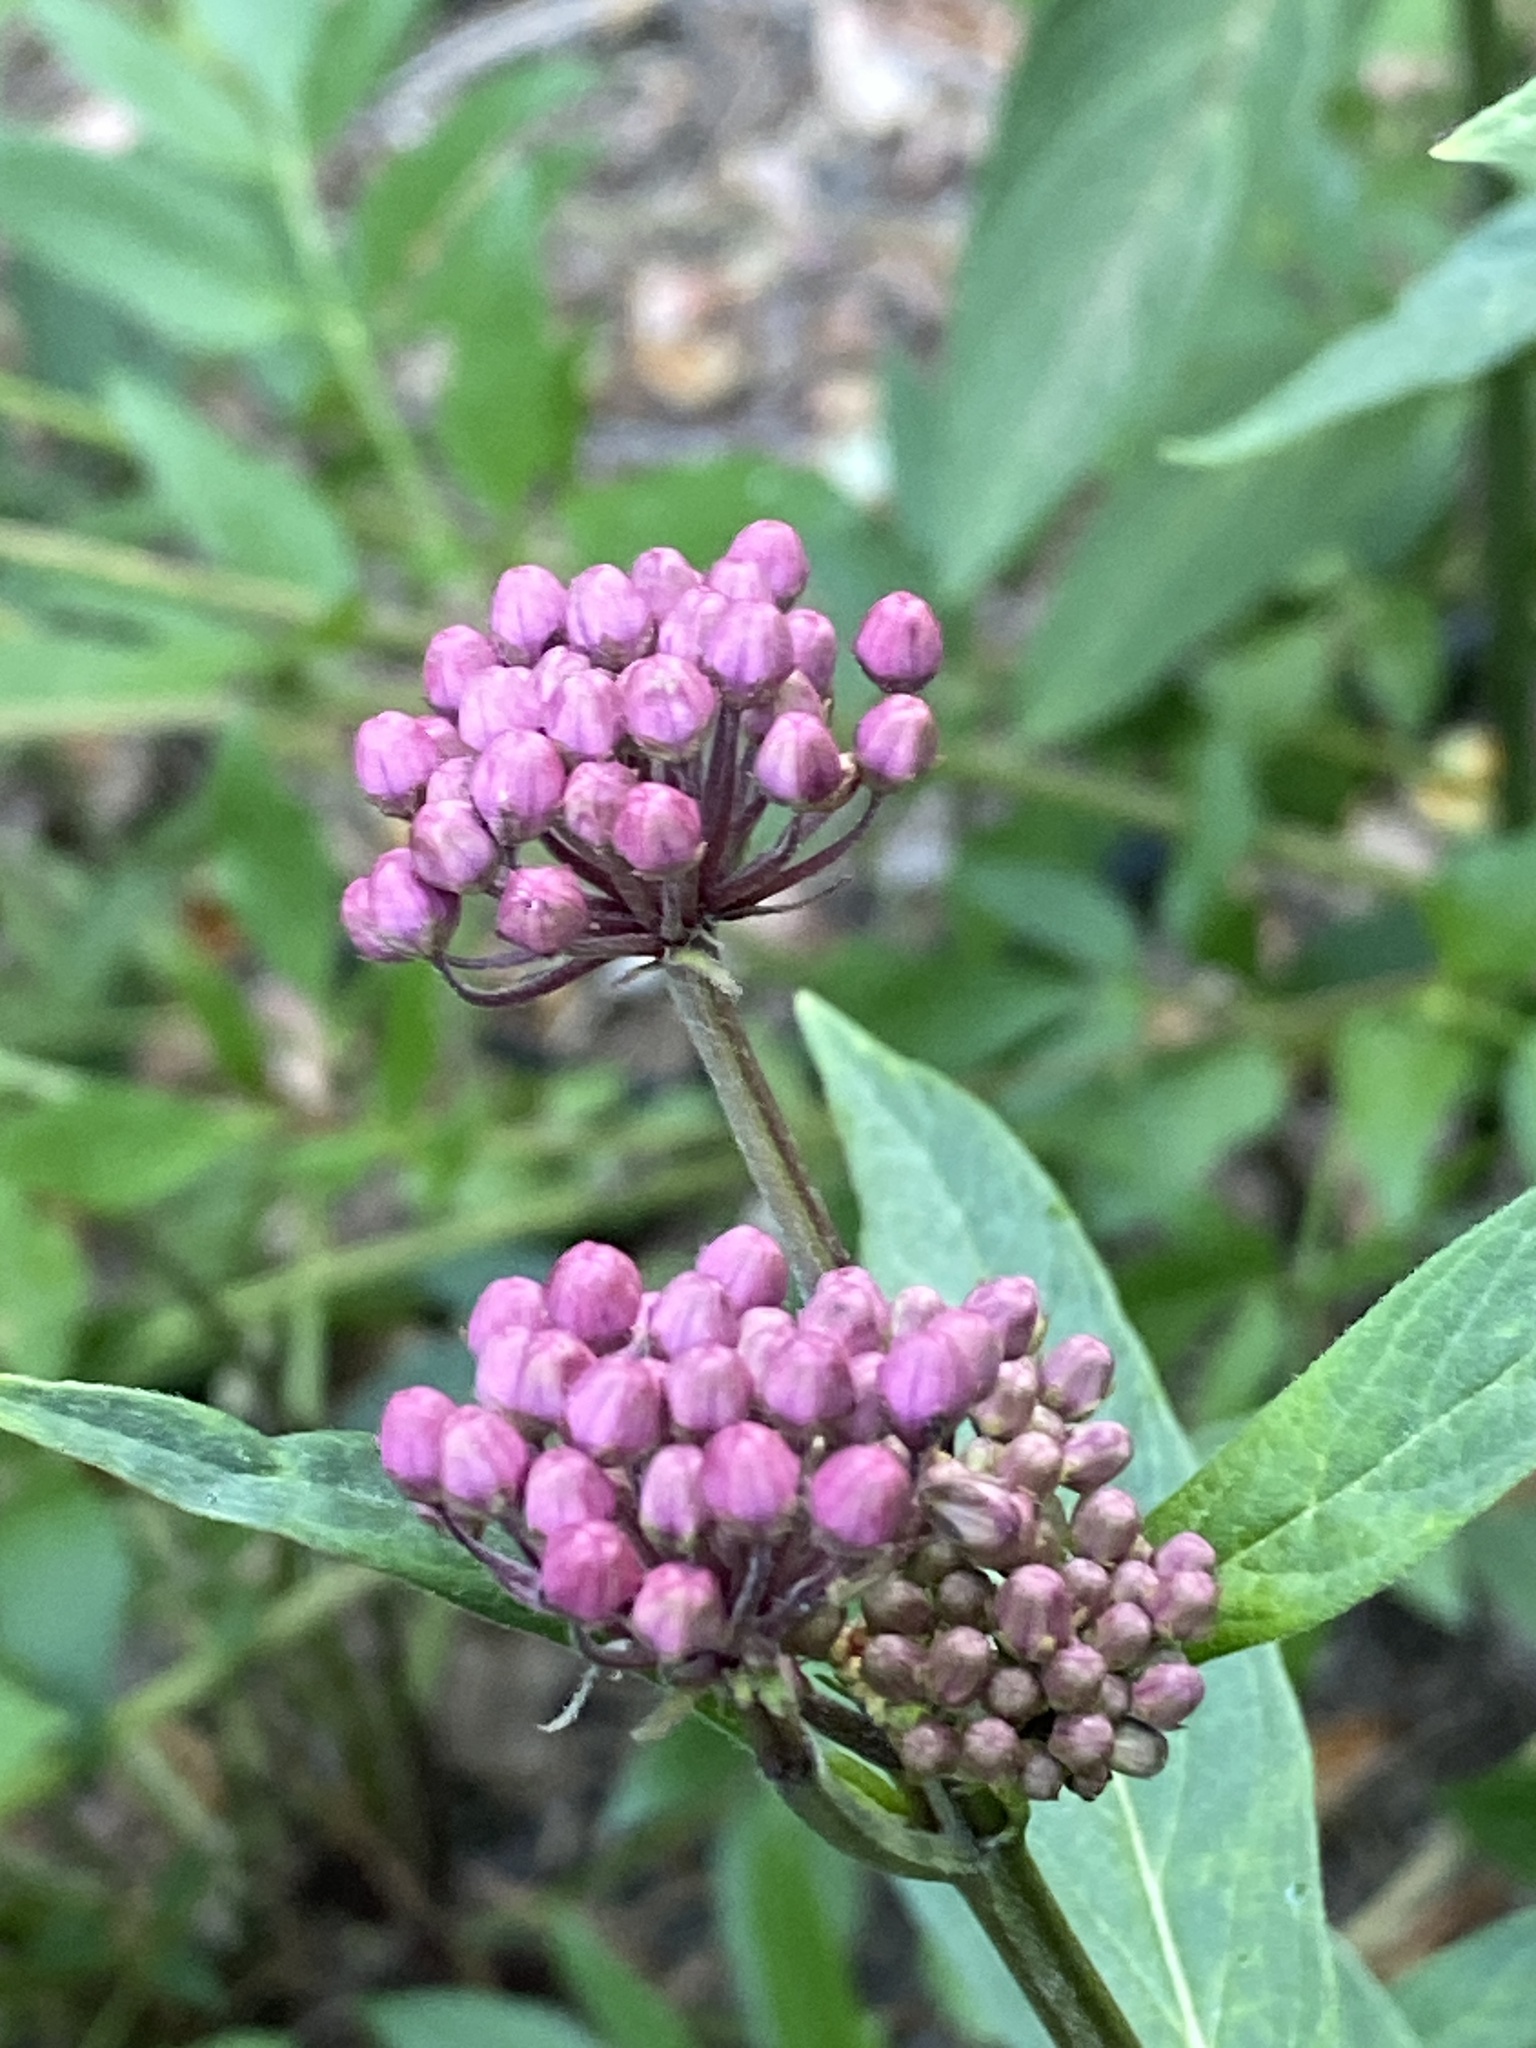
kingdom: Plantae
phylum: Tracheophyta
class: Magnoliopsida
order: Gentianales
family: Apocynaceae
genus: Asclepias
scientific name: Asclepias incarnata
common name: Swamp milkweed
